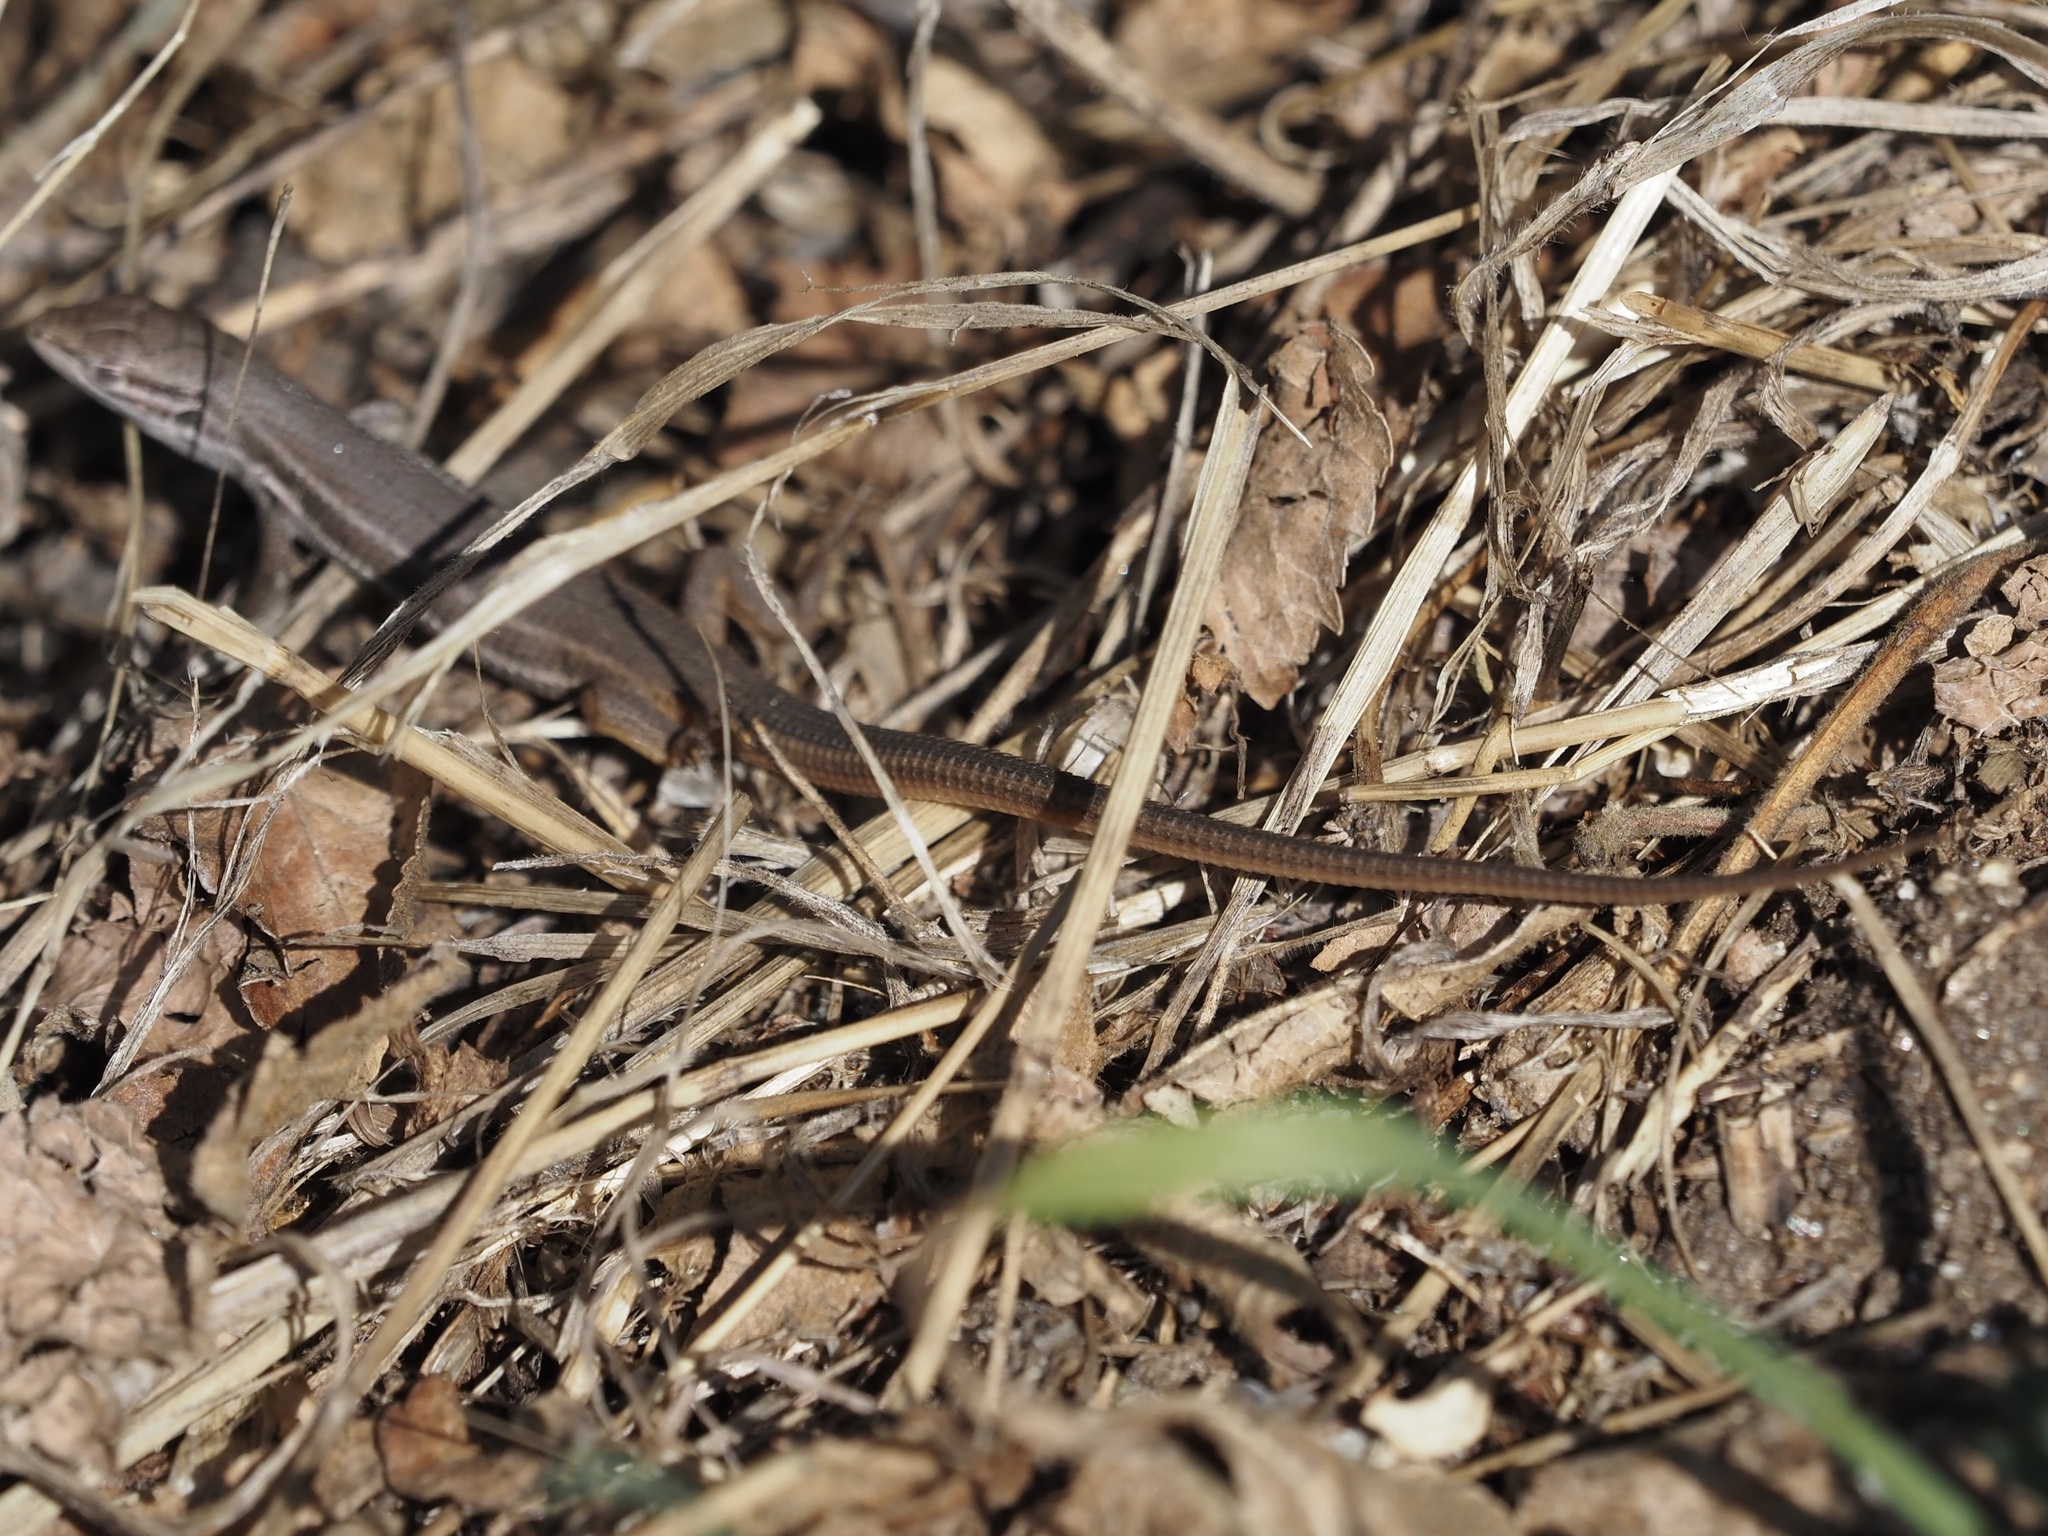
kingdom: Animalia
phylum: Chordata
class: Squamata
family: Lacertidae
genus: Psammodromus
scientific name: Psammodromus algirus
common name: Algerian psammodromus
